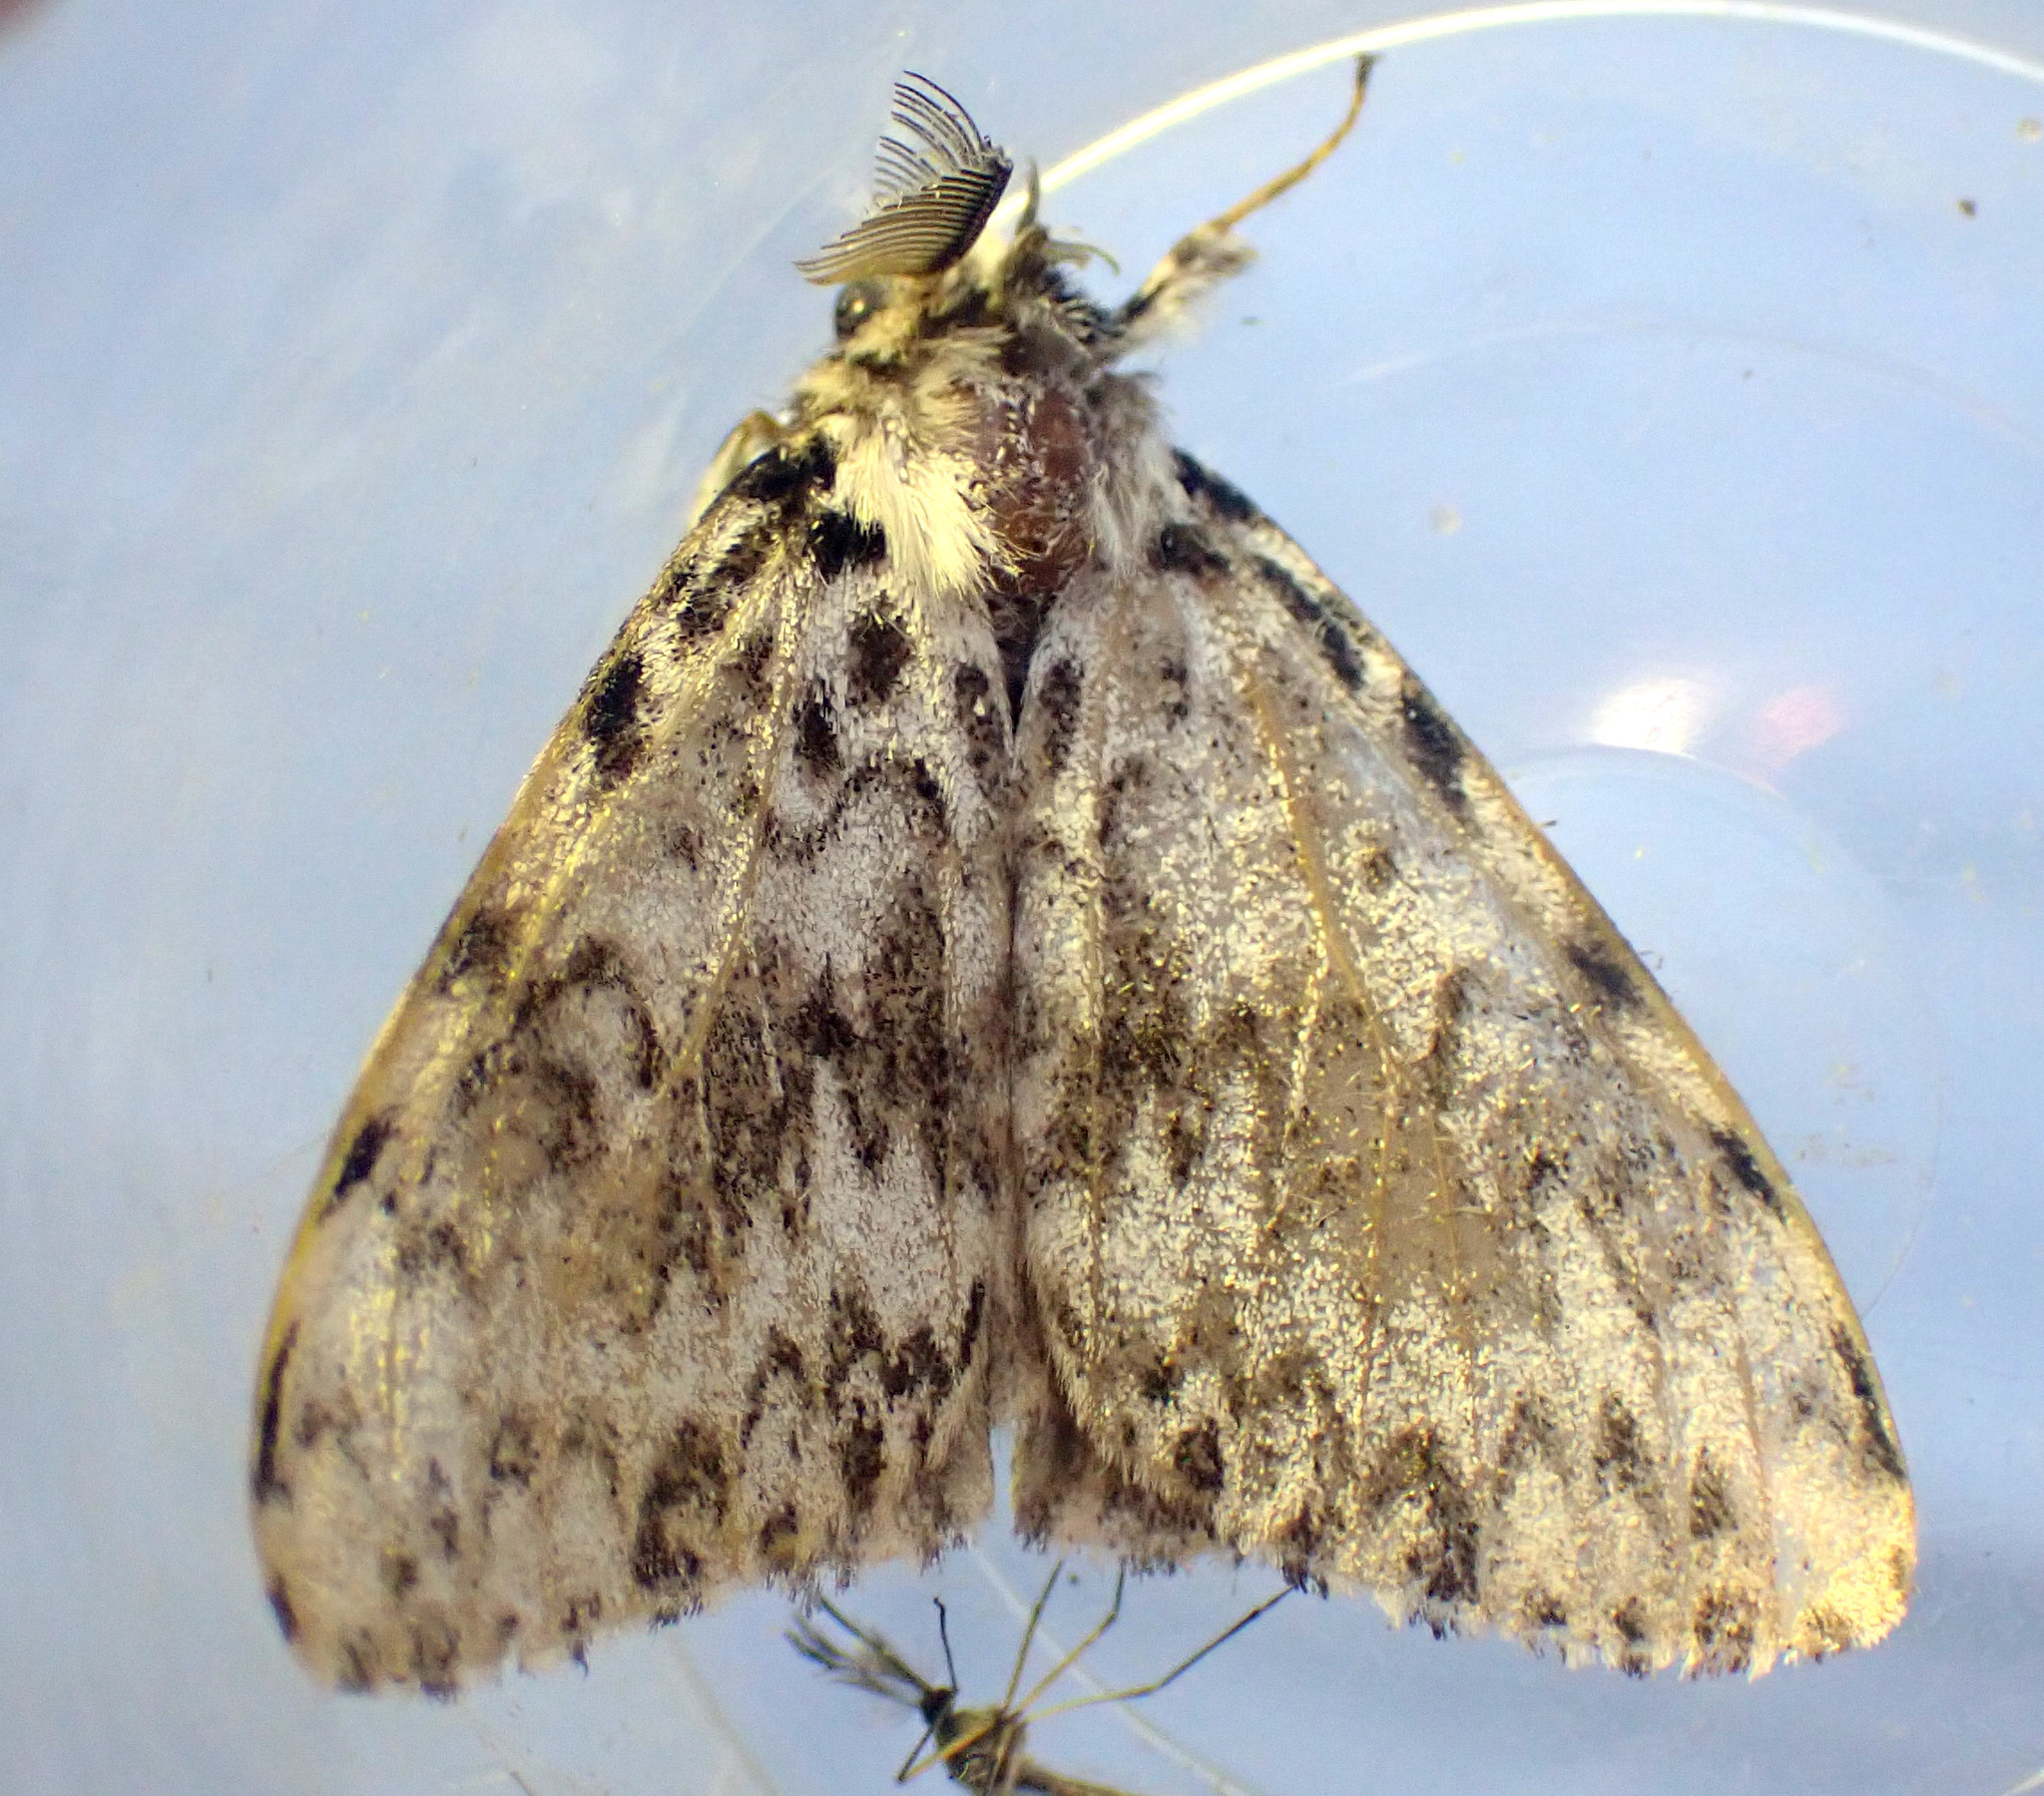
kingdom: Animalia
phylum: Arthropoda
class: Insecta
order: Lepidoptera
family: Erebidae
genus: Lymantria
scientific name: Lymantria monacha
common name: Black arches
